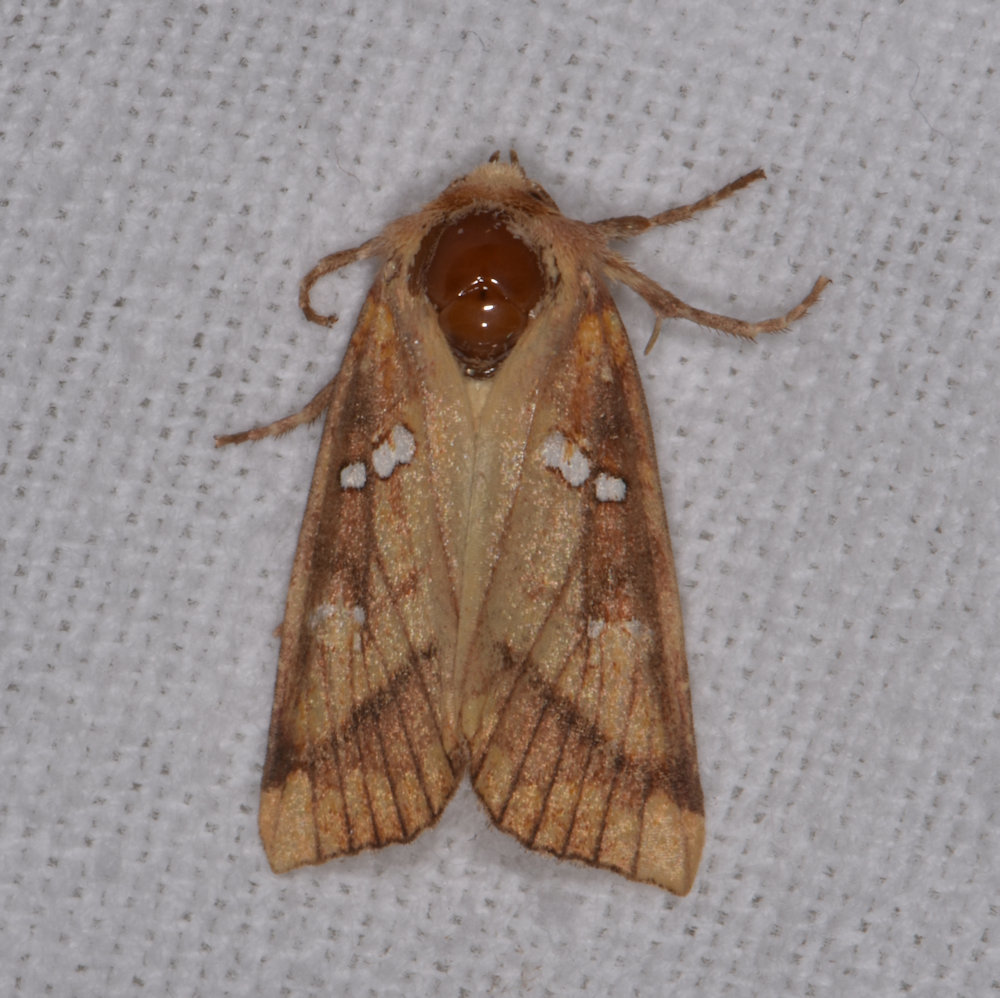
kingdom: Animalia
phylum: Arthropoda
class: Insecta
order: Lepidoptera
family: Noctuidae
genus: Papaipema
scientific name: Papaipema pterisii
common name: Bracken borer moth
